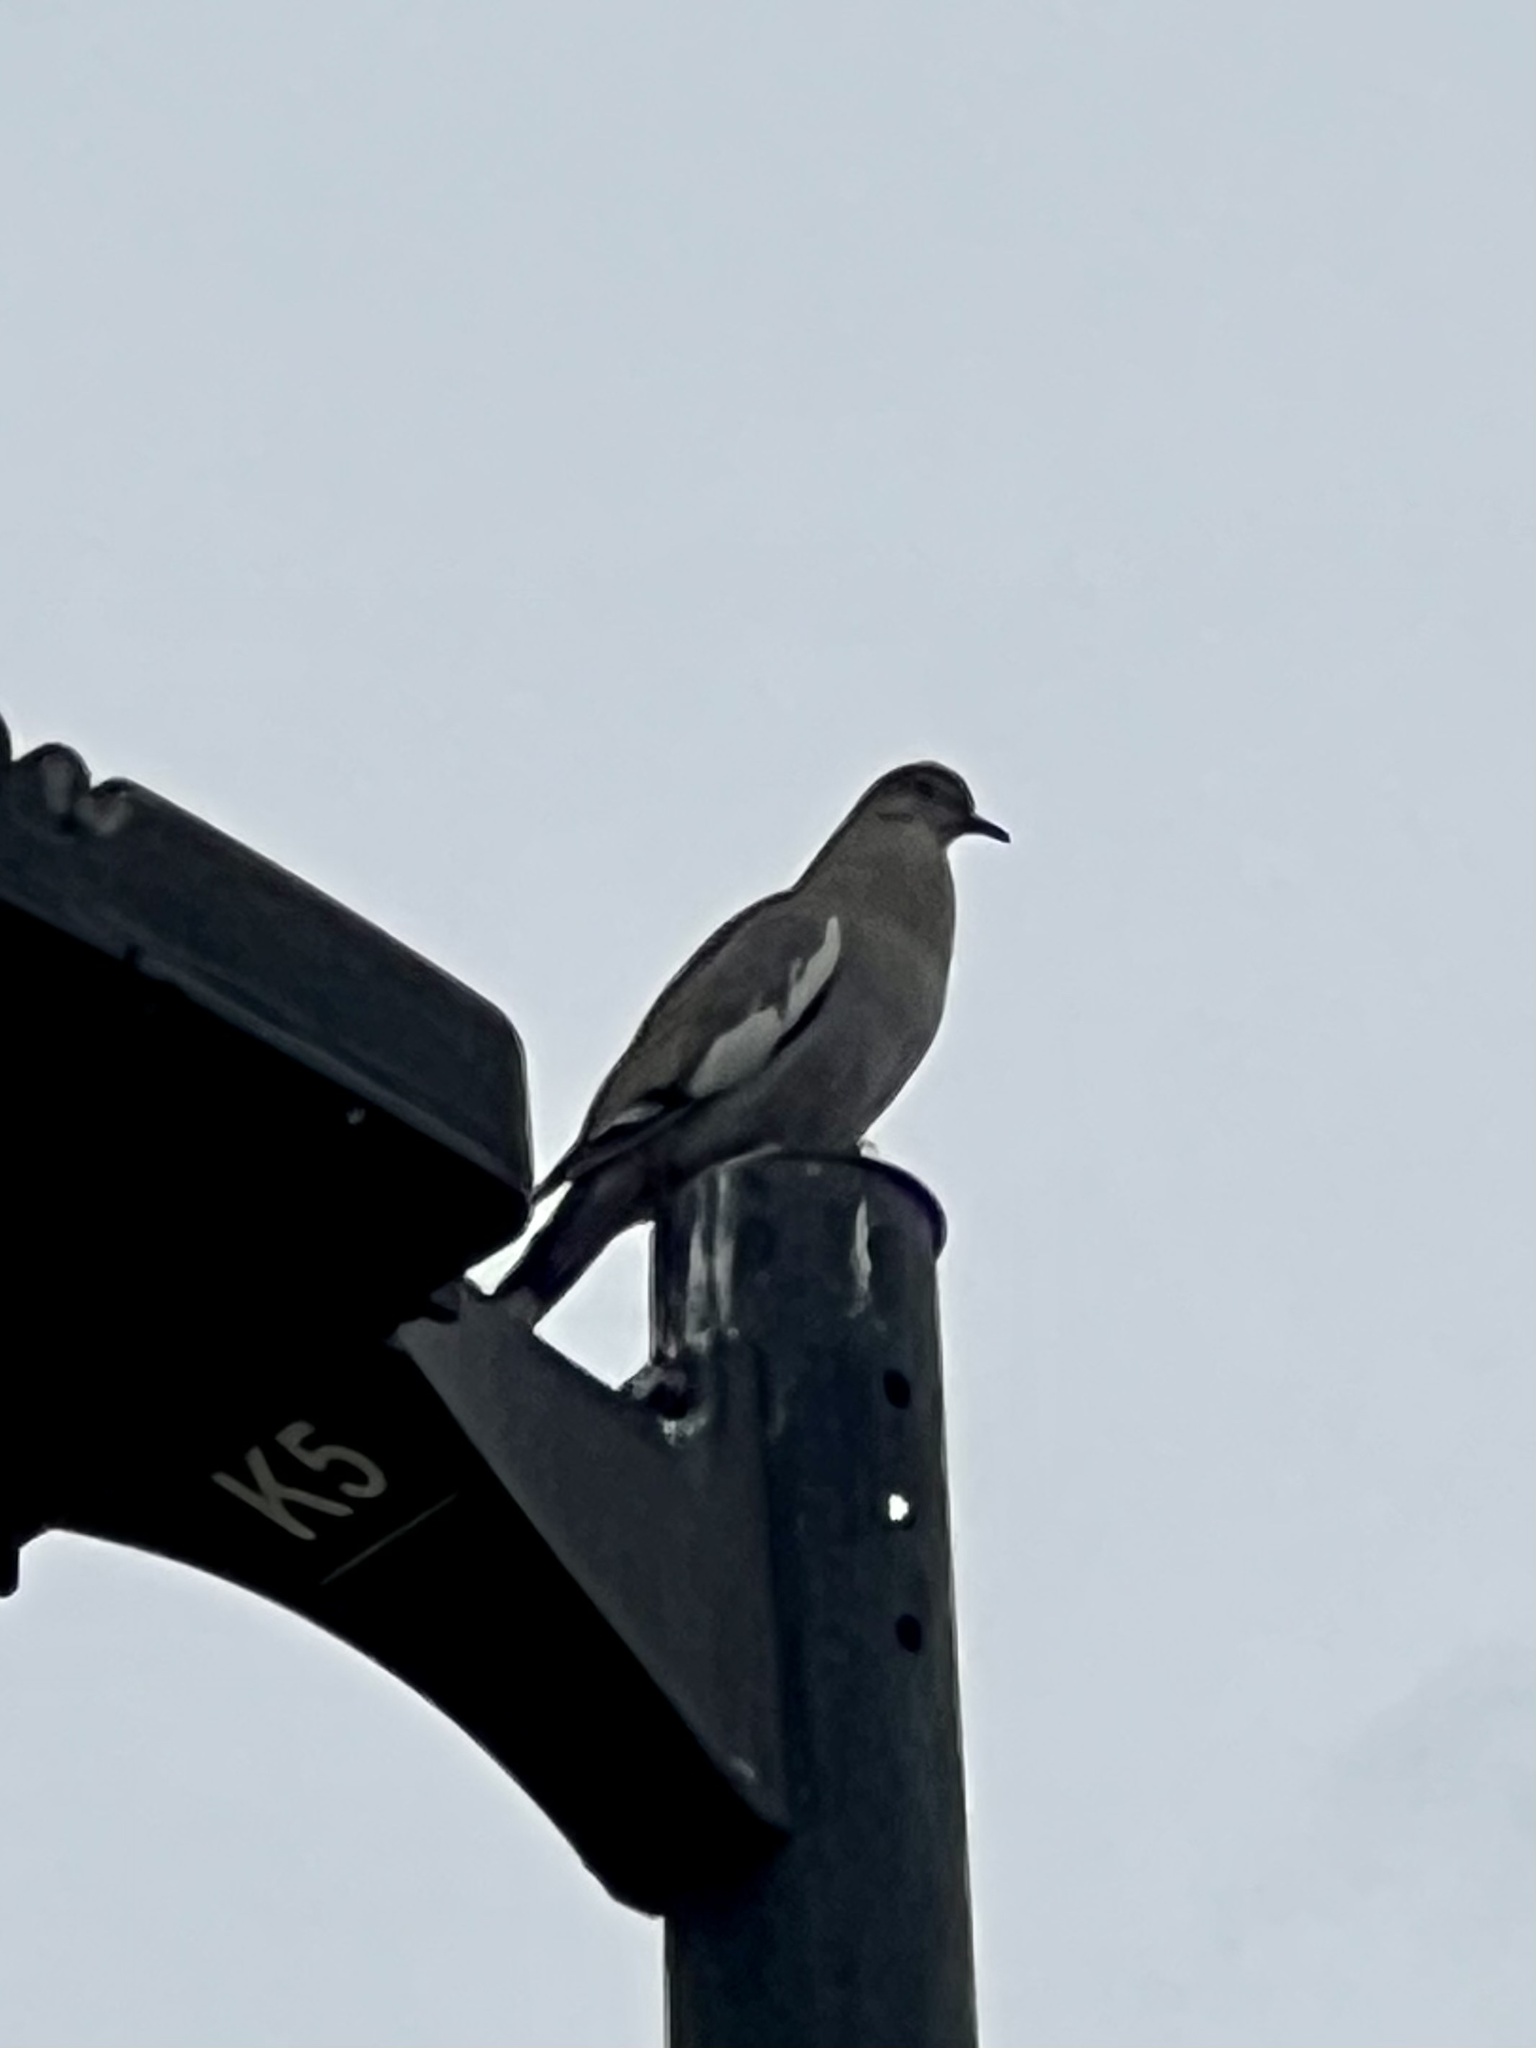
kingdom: Animalia
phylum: Chordata
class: Aves
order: Columbiformes
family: Columbidae
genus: Zenaida
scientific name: Zenaida asiatica
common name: White-winged dove
